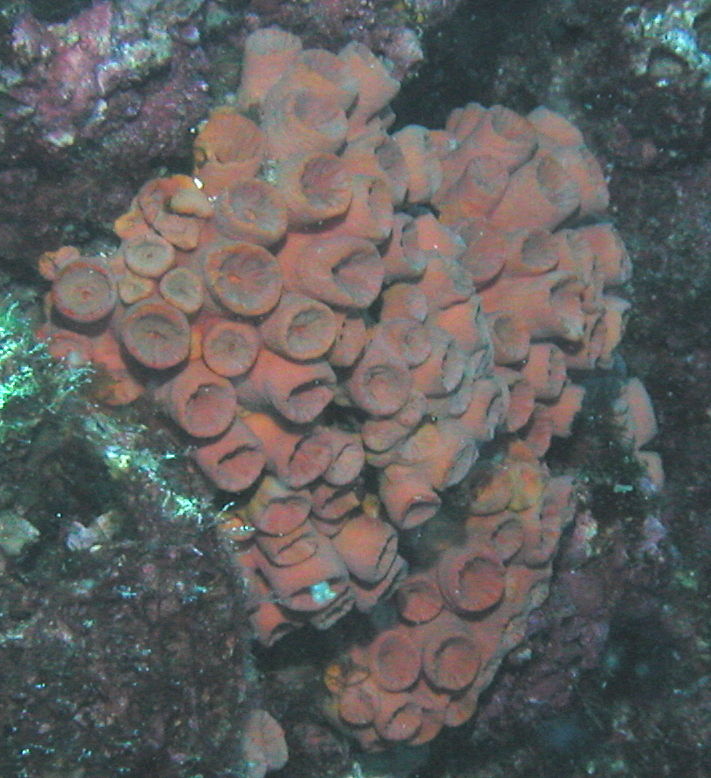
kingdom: Animalia
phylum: Cnidaria
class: Anthozoa
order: Scleractinia
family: Dendrophylliidae
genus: Tubastraea
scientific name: Tubastraea coccinea
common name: Orange cup coral
